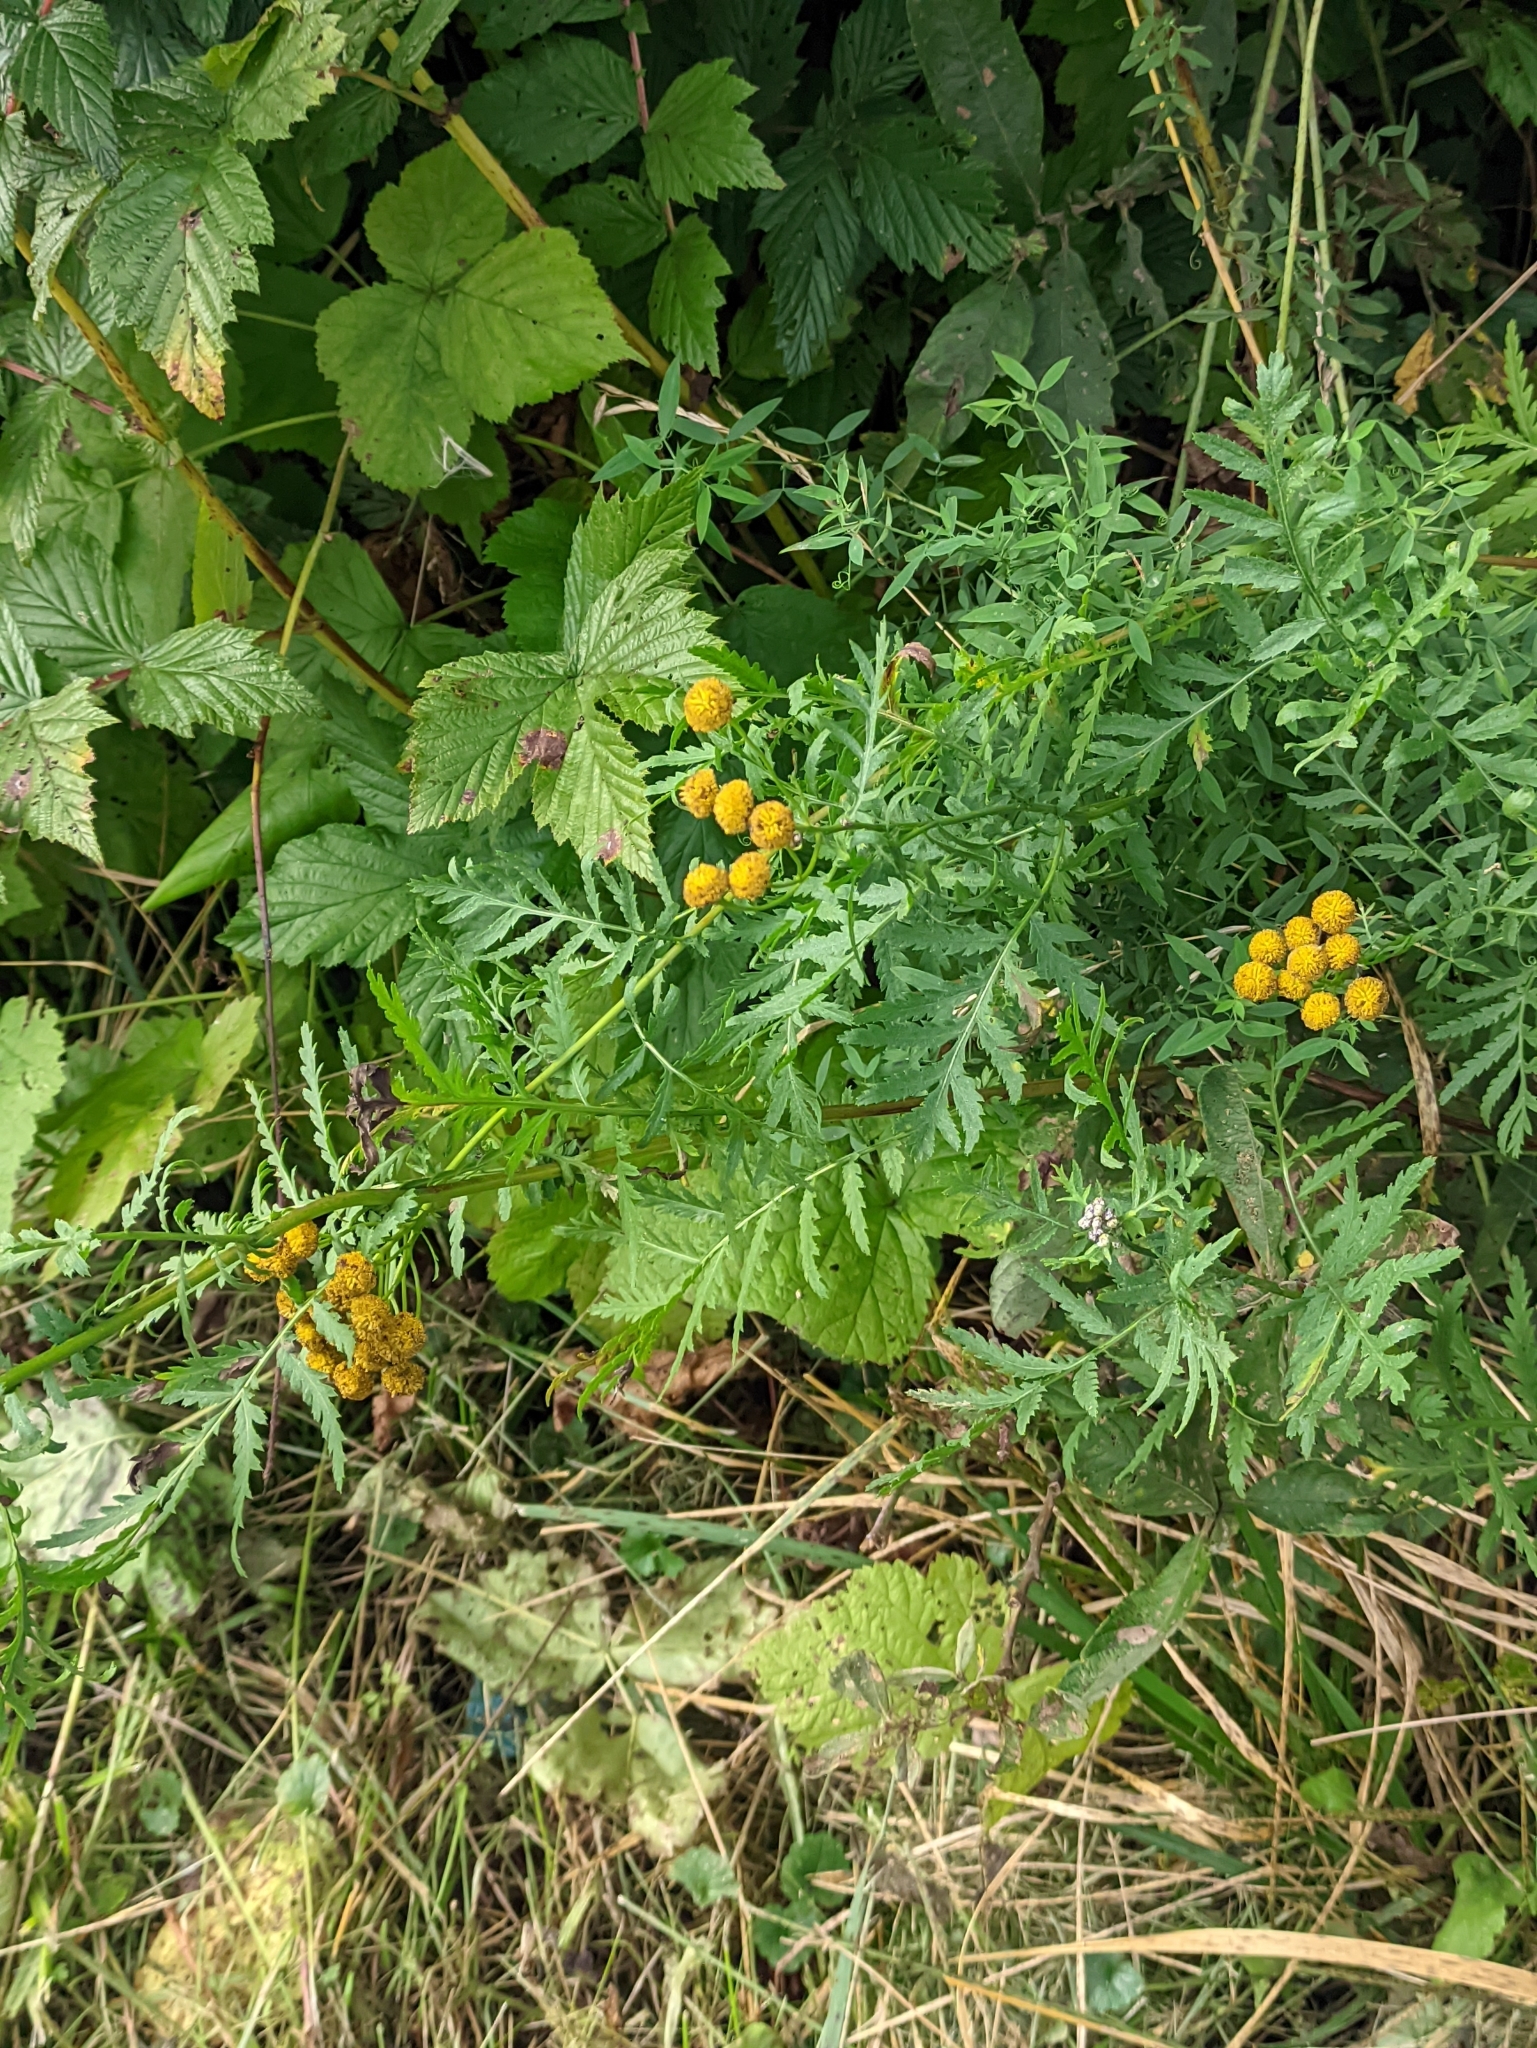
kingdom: Plantae
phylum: Tracheophyta
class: Magnoliopsida
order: Asterales
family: Asteraceae
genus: Tanacetum
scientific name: Tanacetum vulgare
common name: Common tansy
